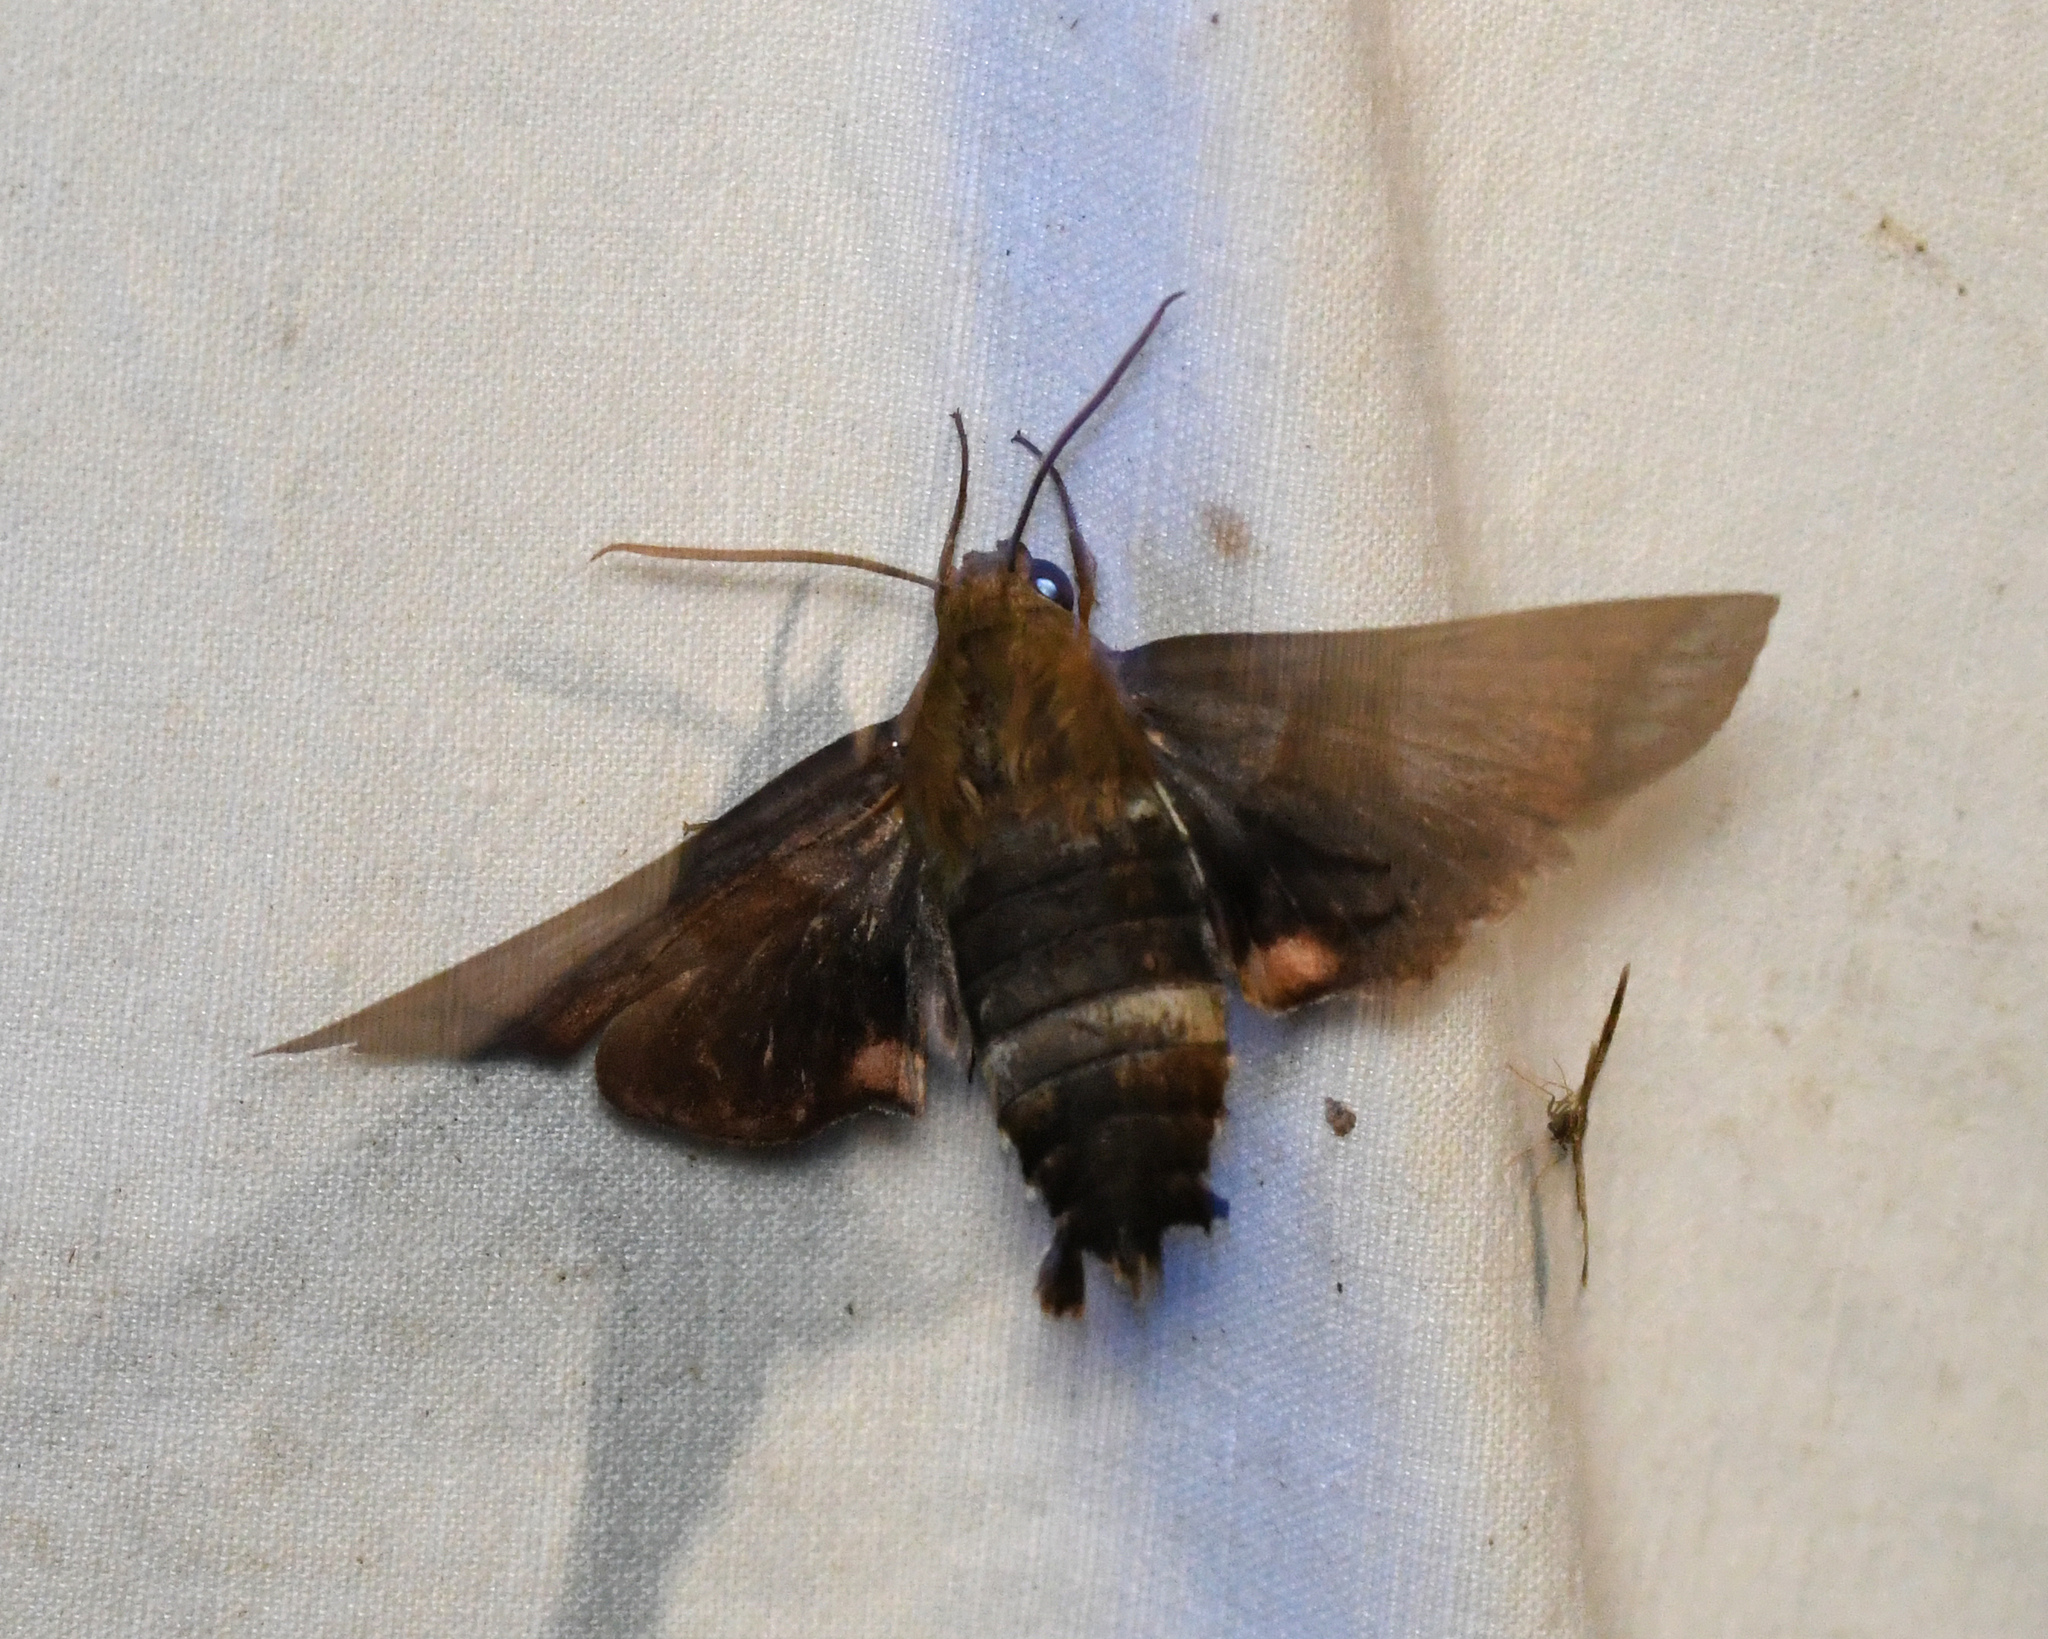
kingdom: Animalia
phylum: Arthropoda
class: Insecta
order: Lepidoptera
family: Sphingidae
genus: Perigonia
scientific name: Perigonia glaucescens
